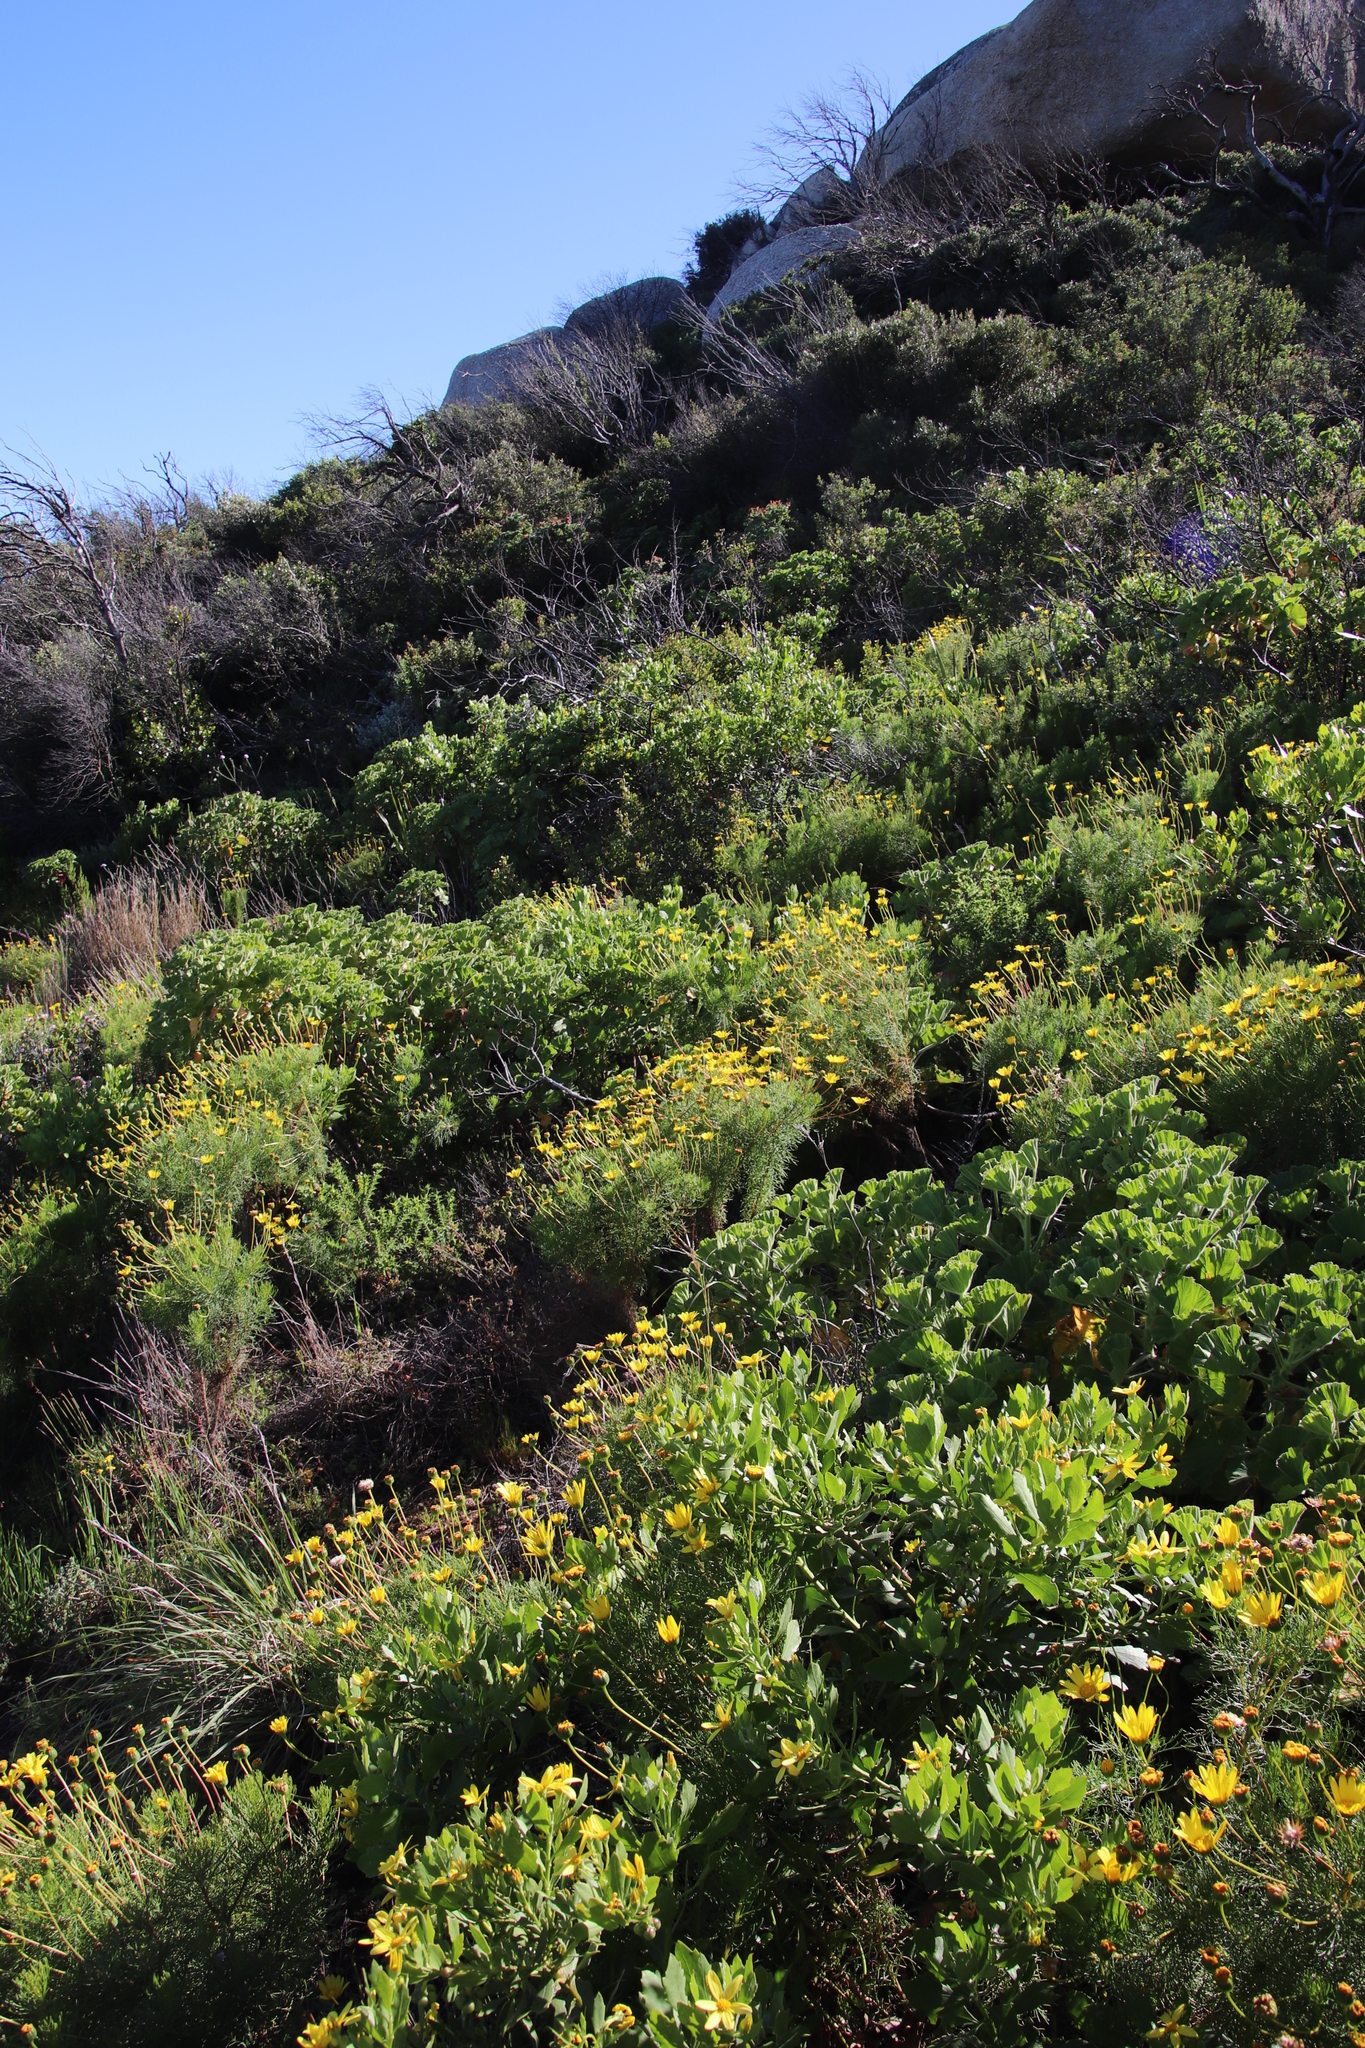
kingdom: Plantae
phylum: Tracheophyta
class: Magnoliopsida
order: Asterales
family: Asteraceae
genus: Euryops
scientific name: Euryops abrotanifolius
